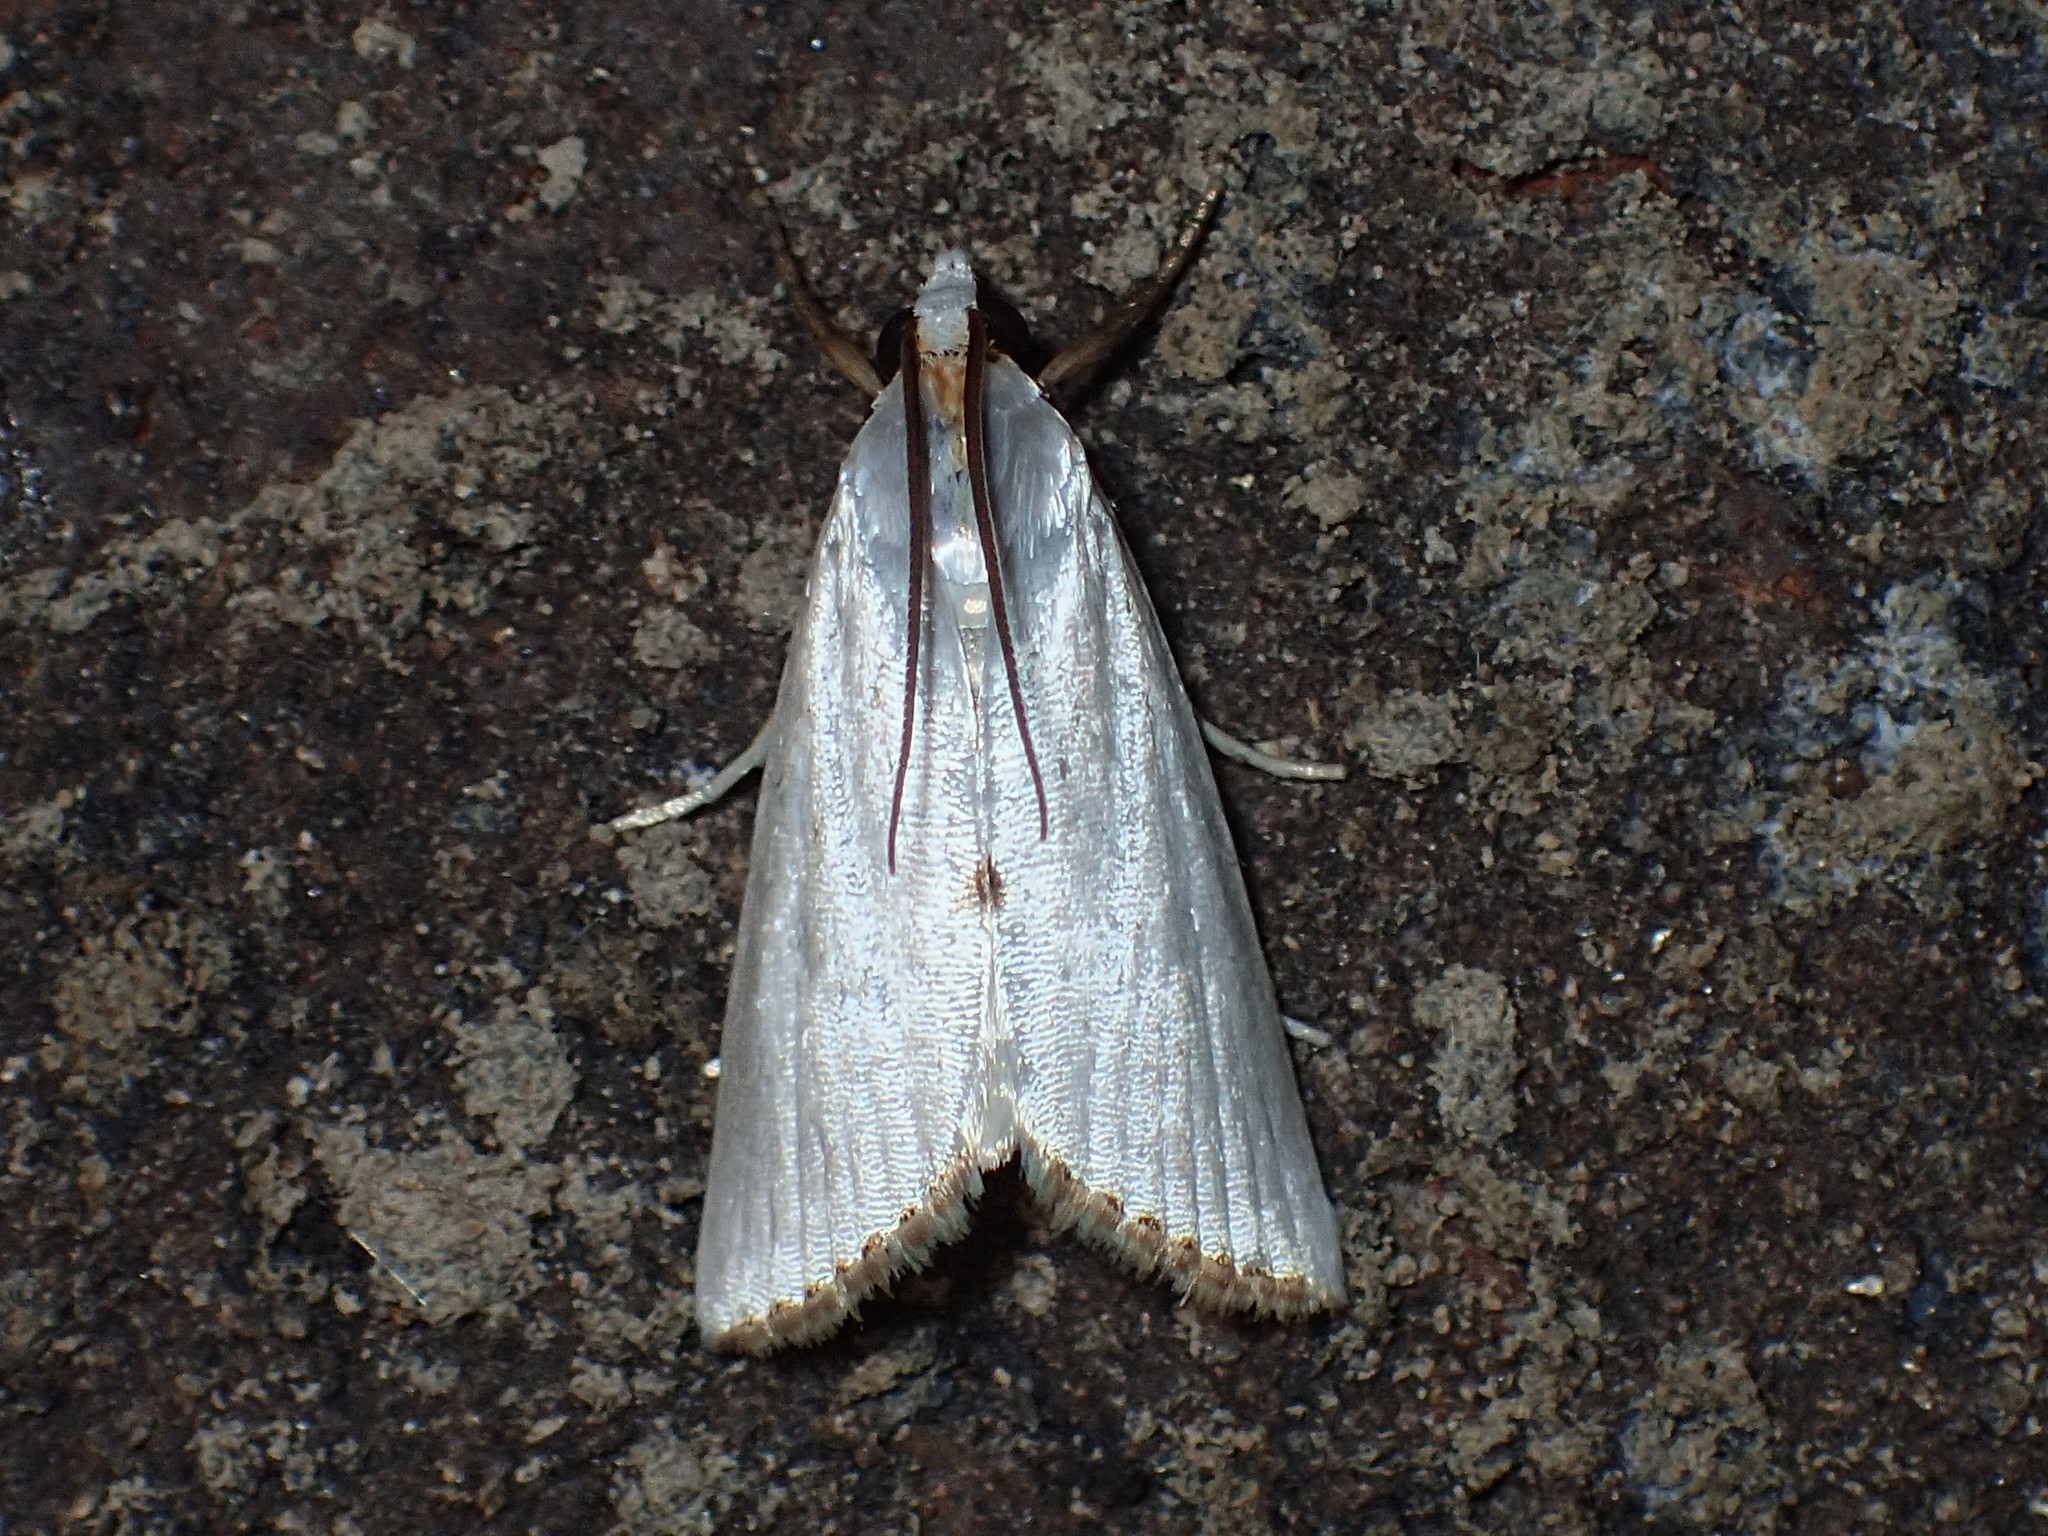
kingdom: Animalia
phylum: Arthropoda
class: Insecta
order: Lepidoptera
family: Crambidae
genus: Argyria
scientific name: Argyria nivalis
